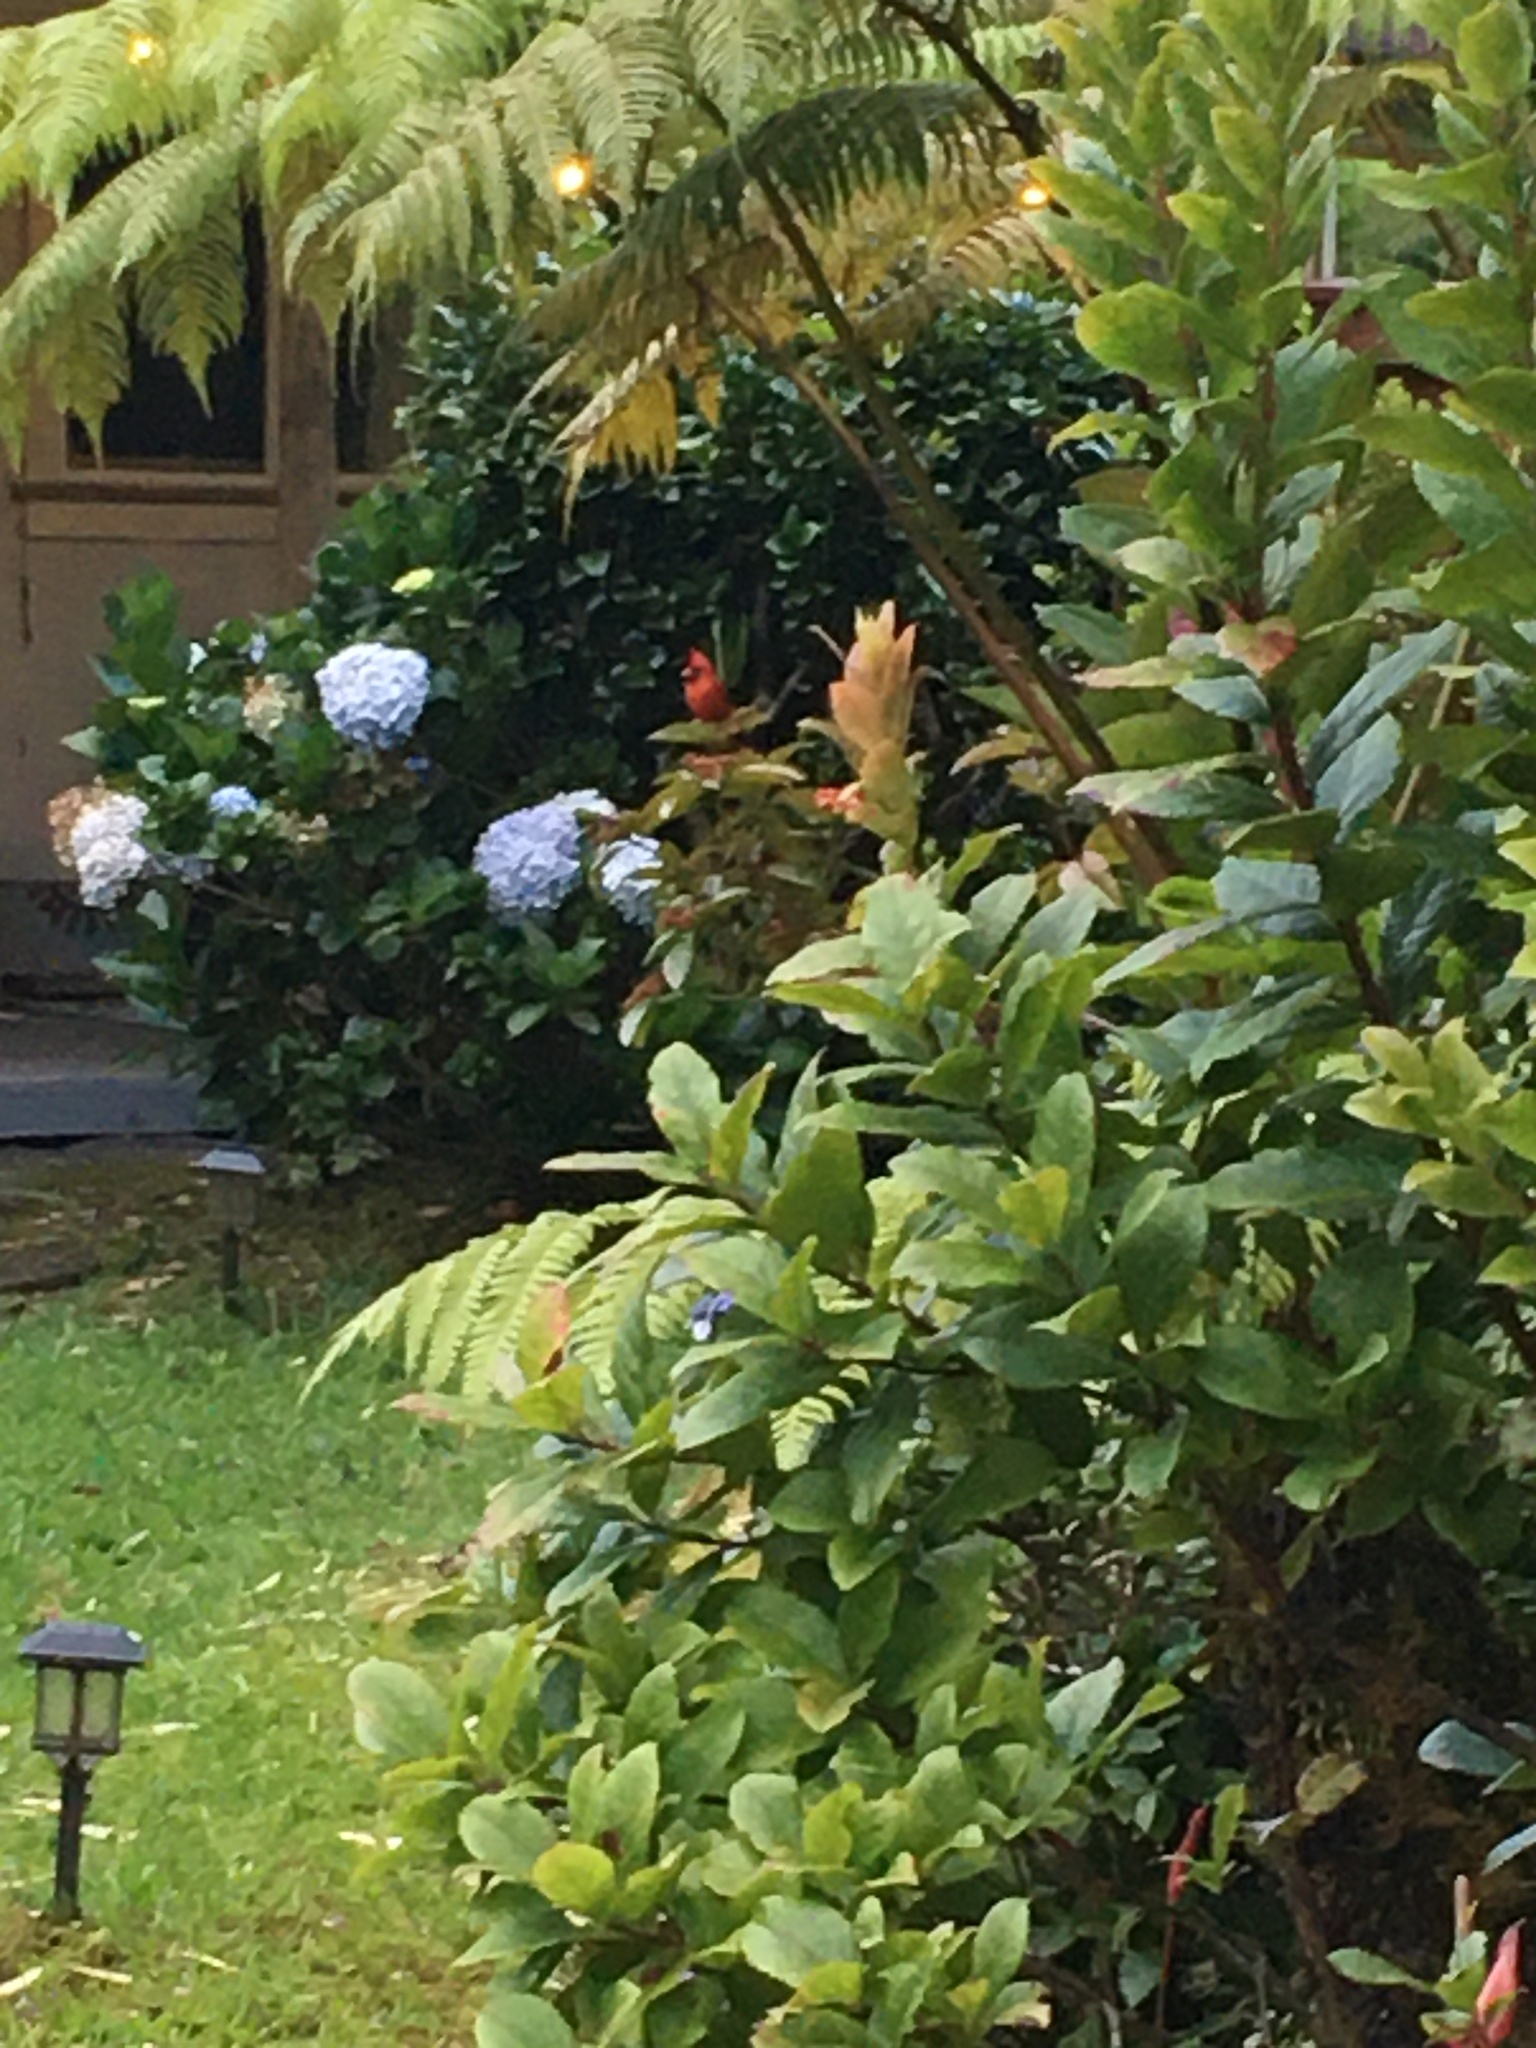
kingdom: Animalia
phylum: Chordata
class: Aves
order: Passeriformes
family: Cardinalidae
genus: Cardinalis
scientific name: Cardinalis cardinalis
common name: Northern cardinal
